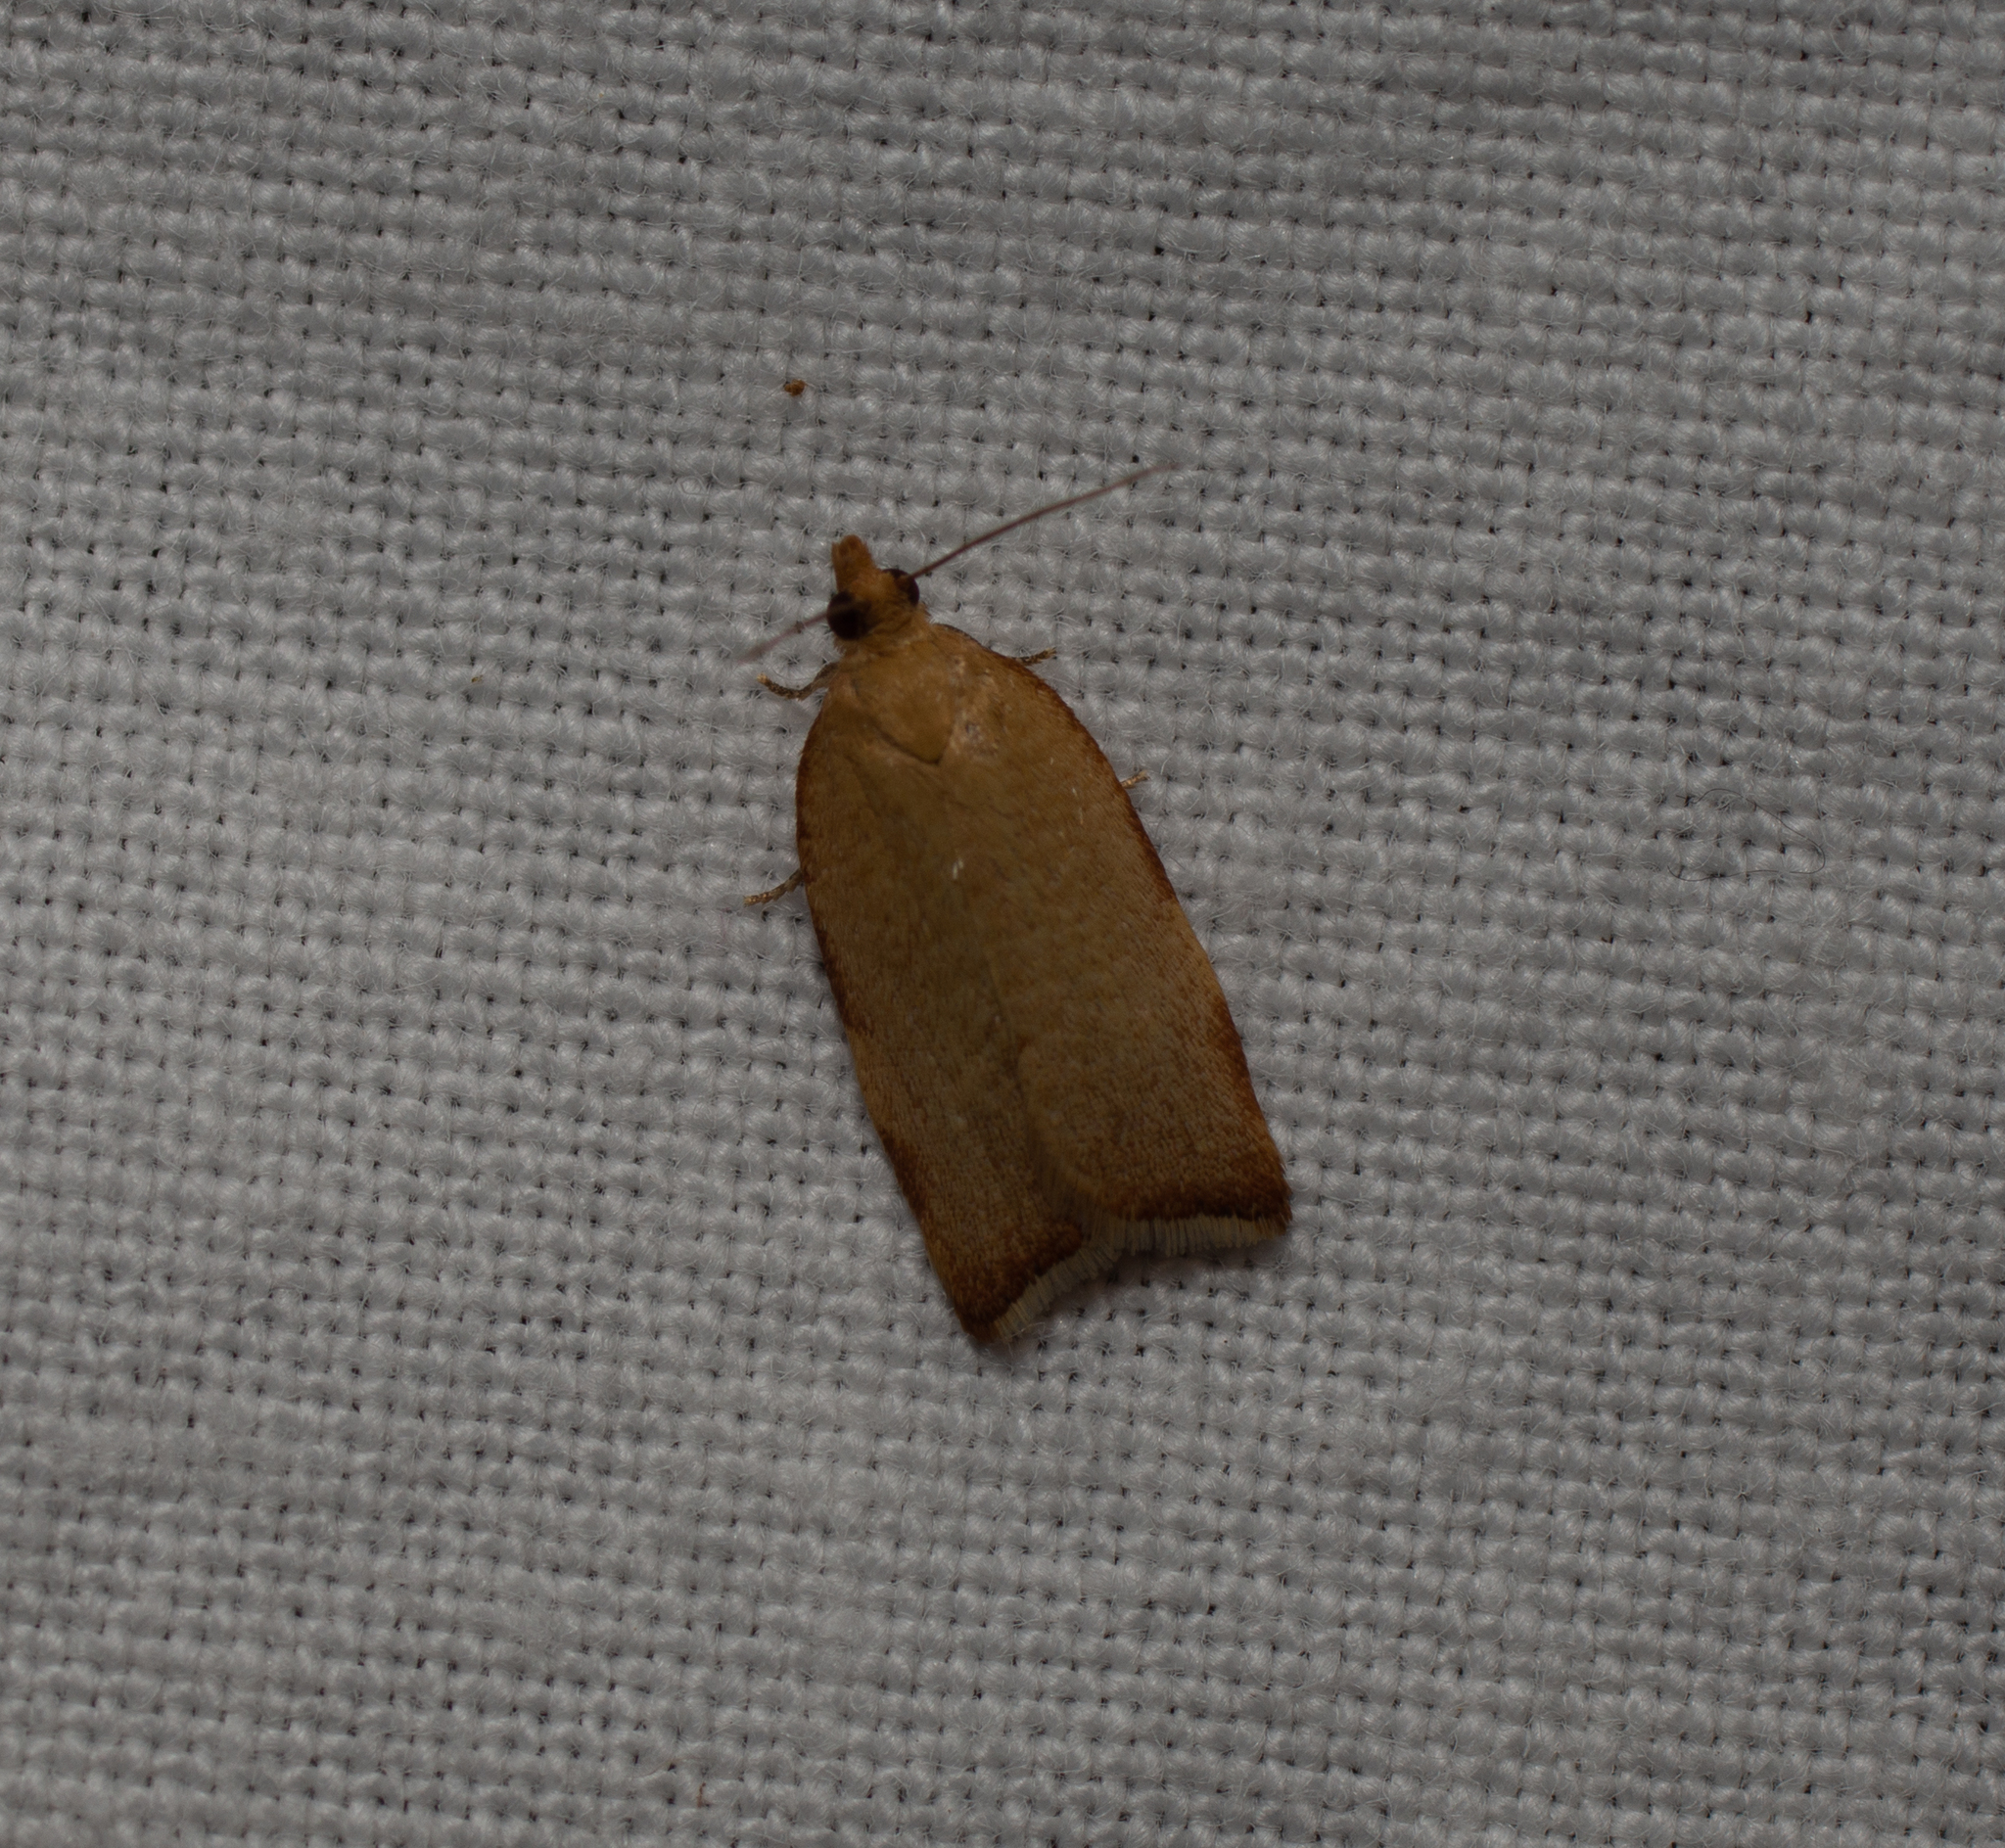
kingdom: Animalia
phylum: Arthropoda
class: Insecta
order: Lepidoptera
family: Tortricidae
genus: Clepsis
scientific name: Clepsis siciliana
